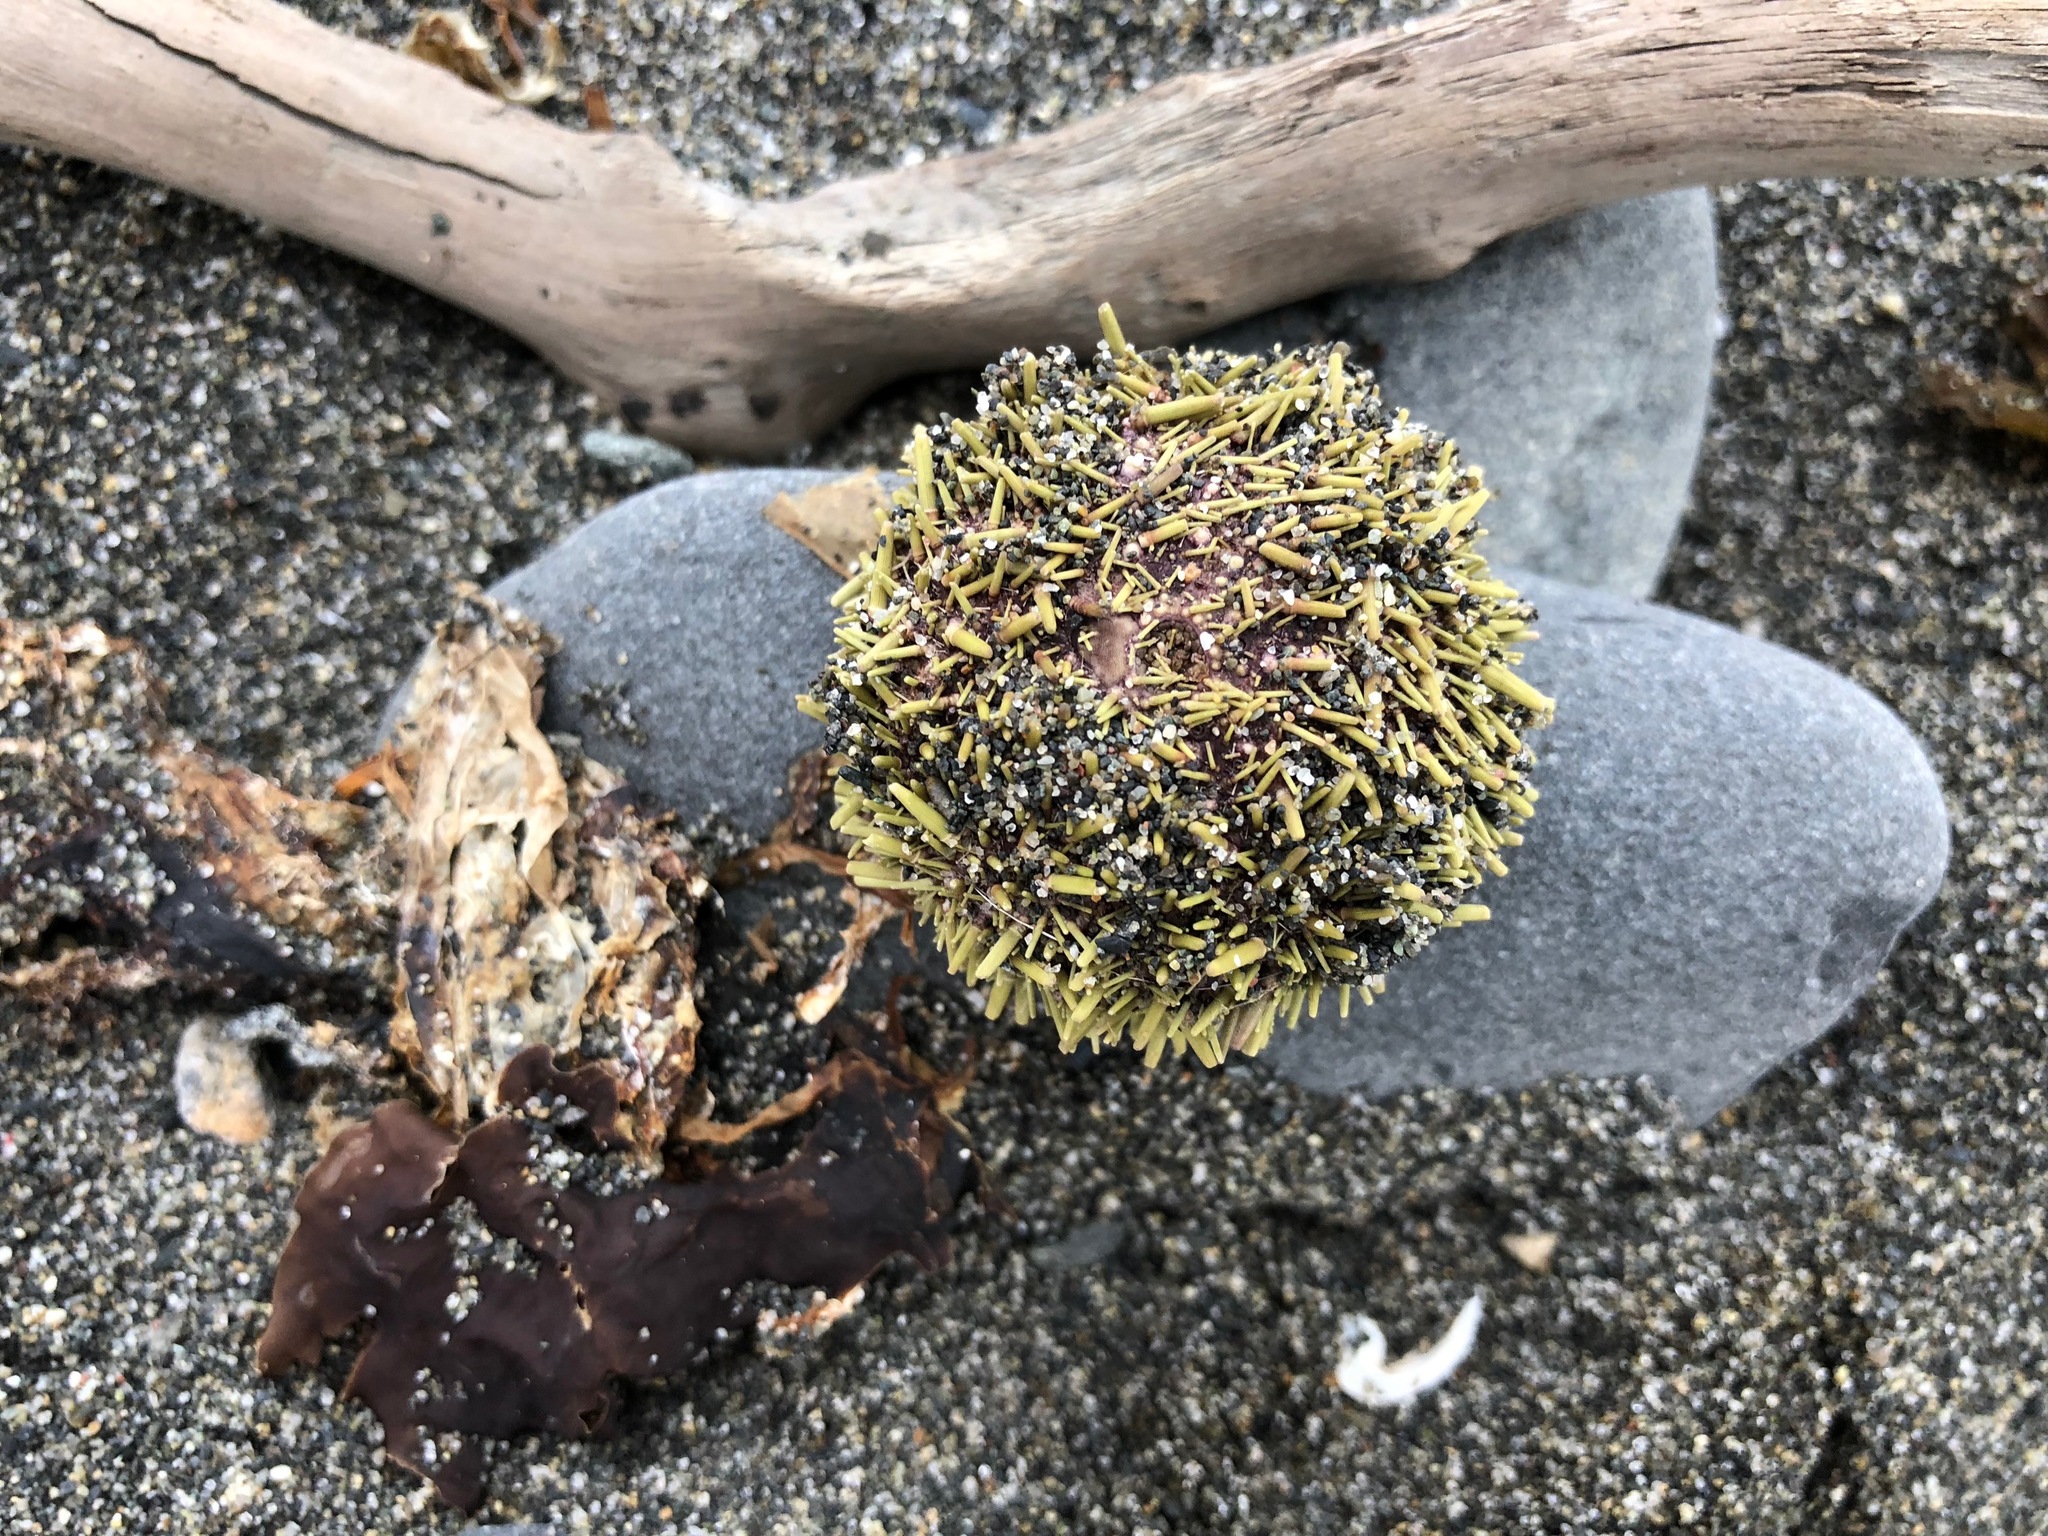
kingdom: Animalia
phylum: Echinodermata
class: Echinoidea
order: Camarodonta
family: Strongylocentrotidae
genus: Strongylocentrotus
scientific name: Strongylocentrotus droebachiensis
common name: Northern sea urchin
